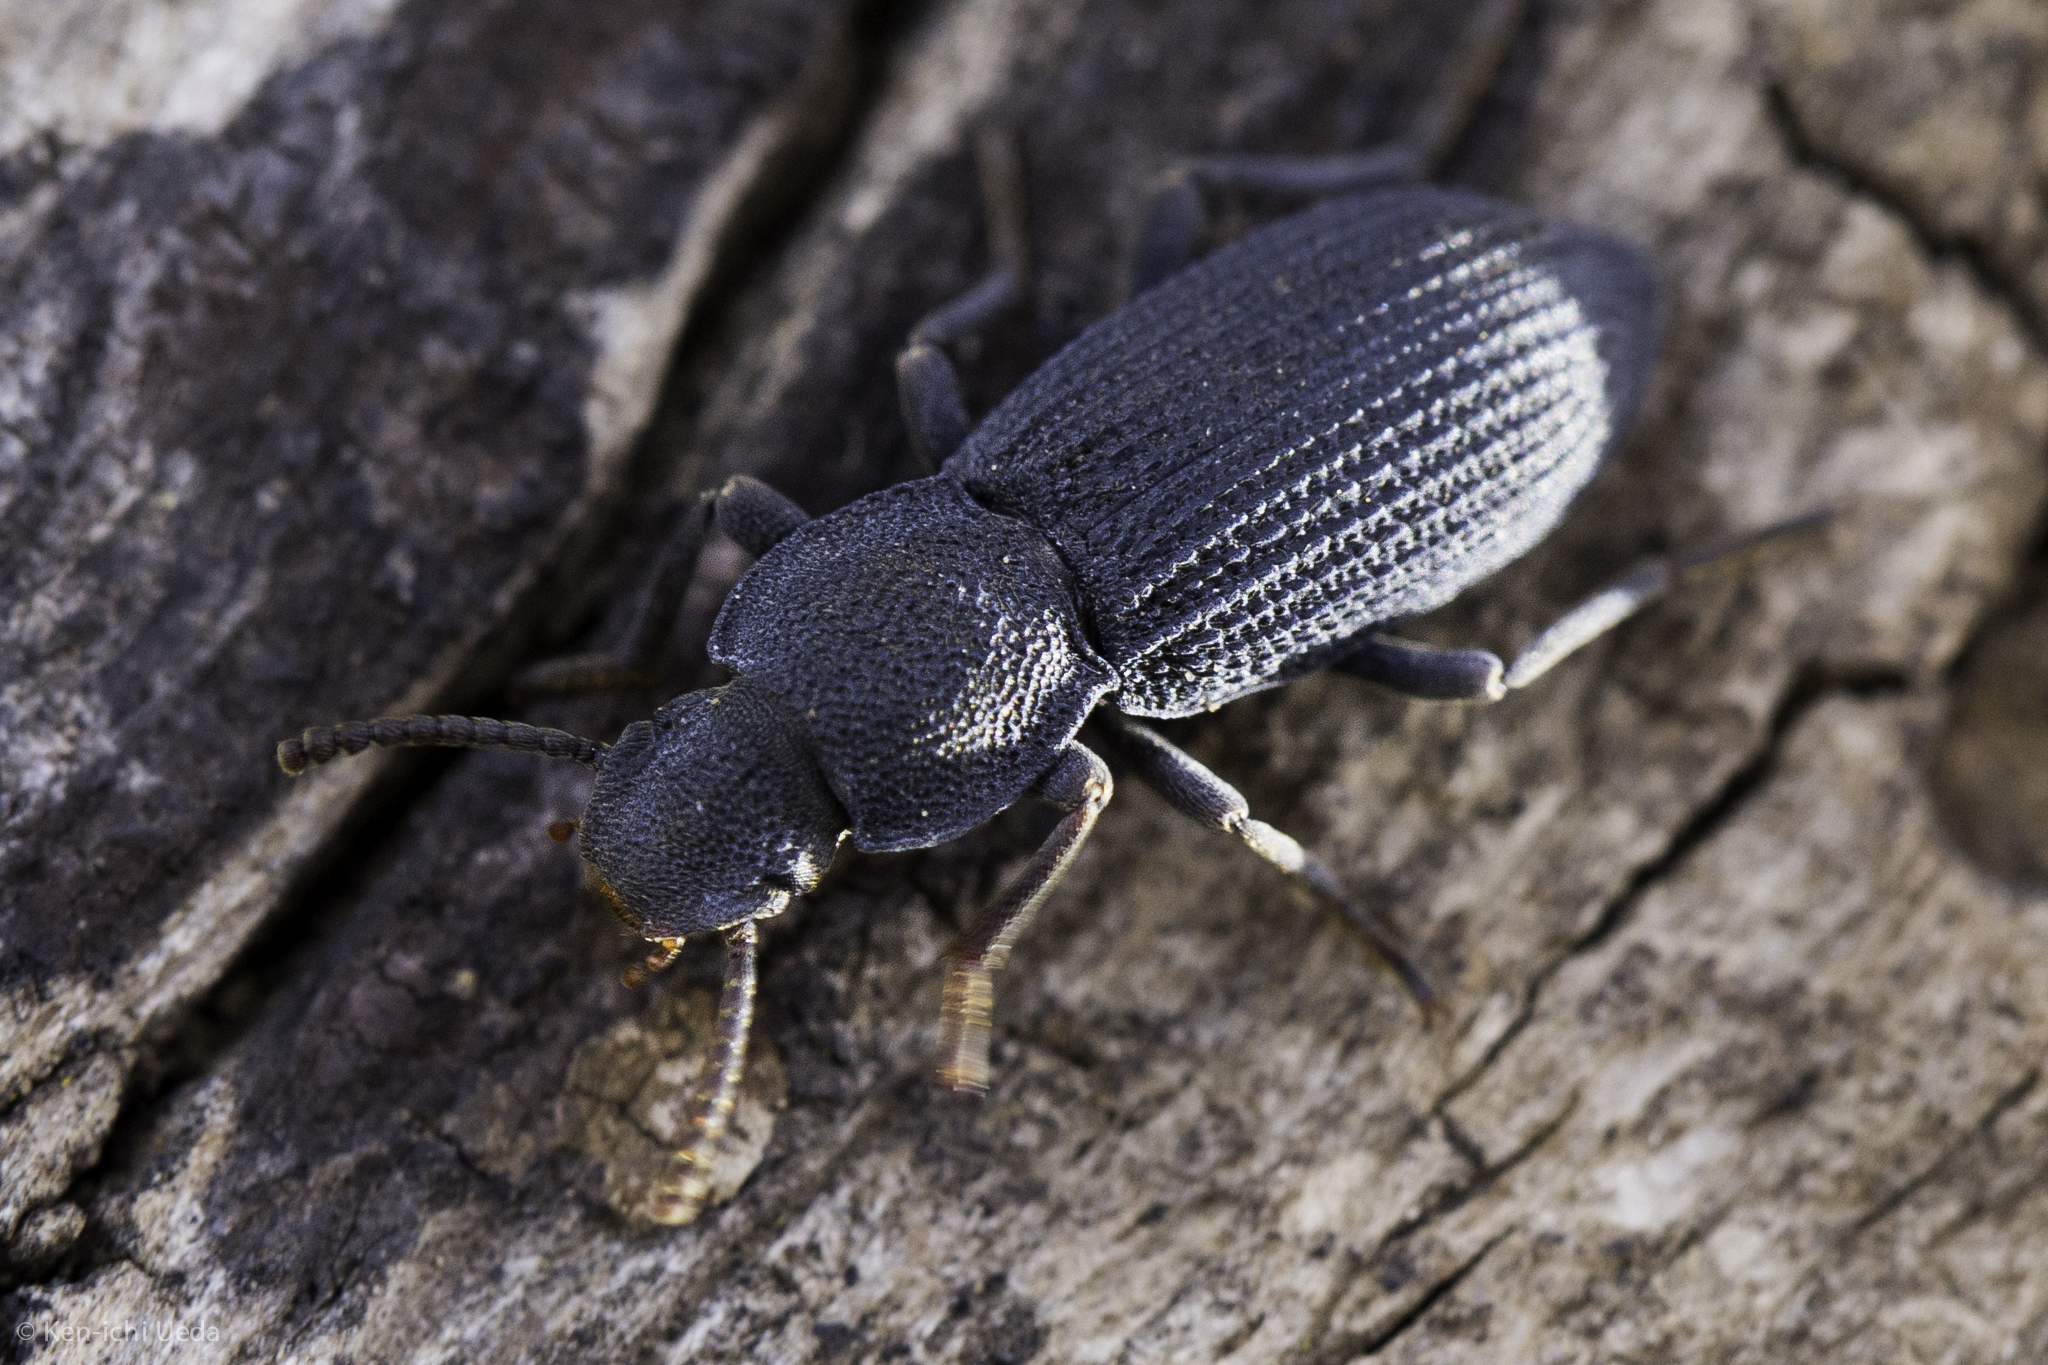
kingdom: Animalia
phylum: Arthropoda
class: Insecta
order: Coleoptera
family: Tenebrionidae
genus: Nyctoporis
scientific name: Nyctoporis aequicollis
